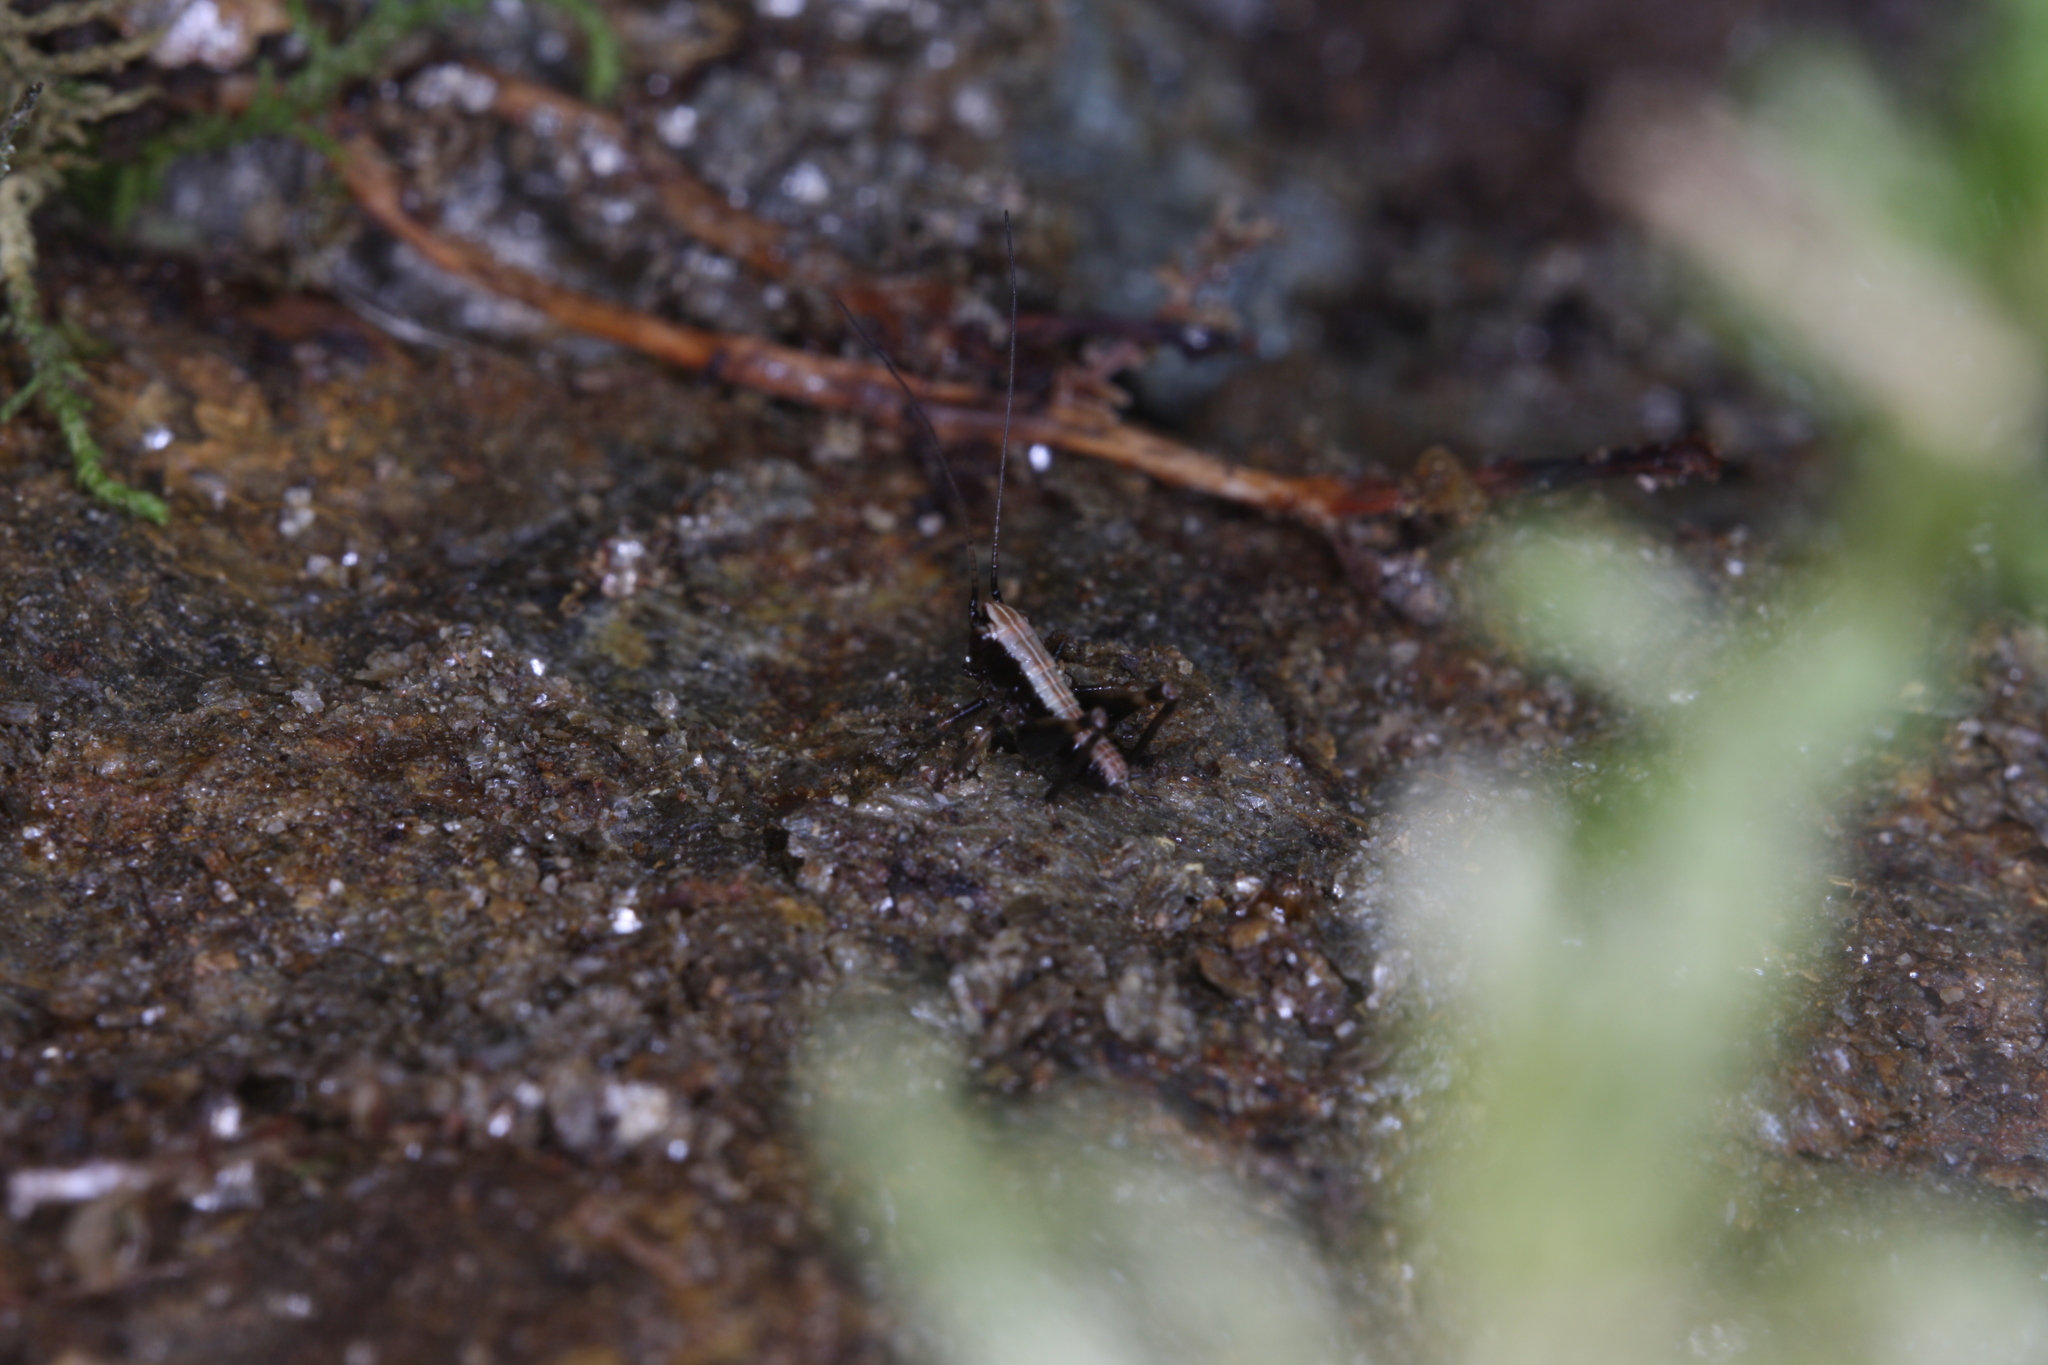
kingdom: Animalia
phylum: Arthropoda
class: Insecta
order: Orthoptera
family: Tettigoniidae
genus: Pholidoptera
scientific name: Pholidoptera griseoaptera
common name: Dark bush-cricket
